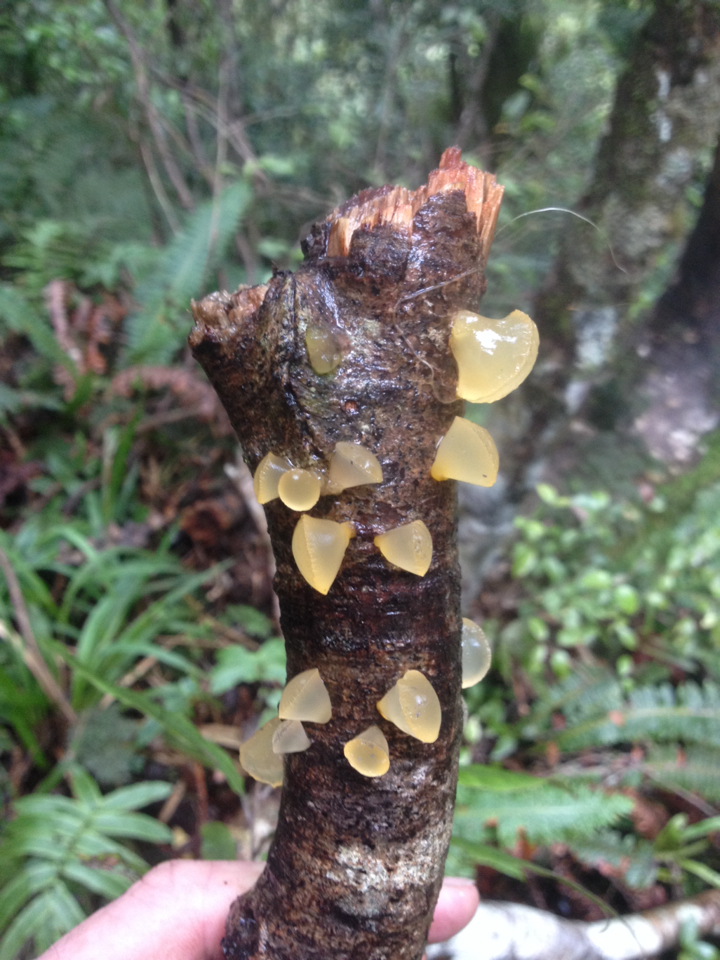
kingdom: Fungi
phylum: Basidiomycota
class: Dacrymycetes
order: Dacrymycetales
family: Dacrymycetaceae
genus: Heterotextus
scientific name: Heterotextus miltinus
